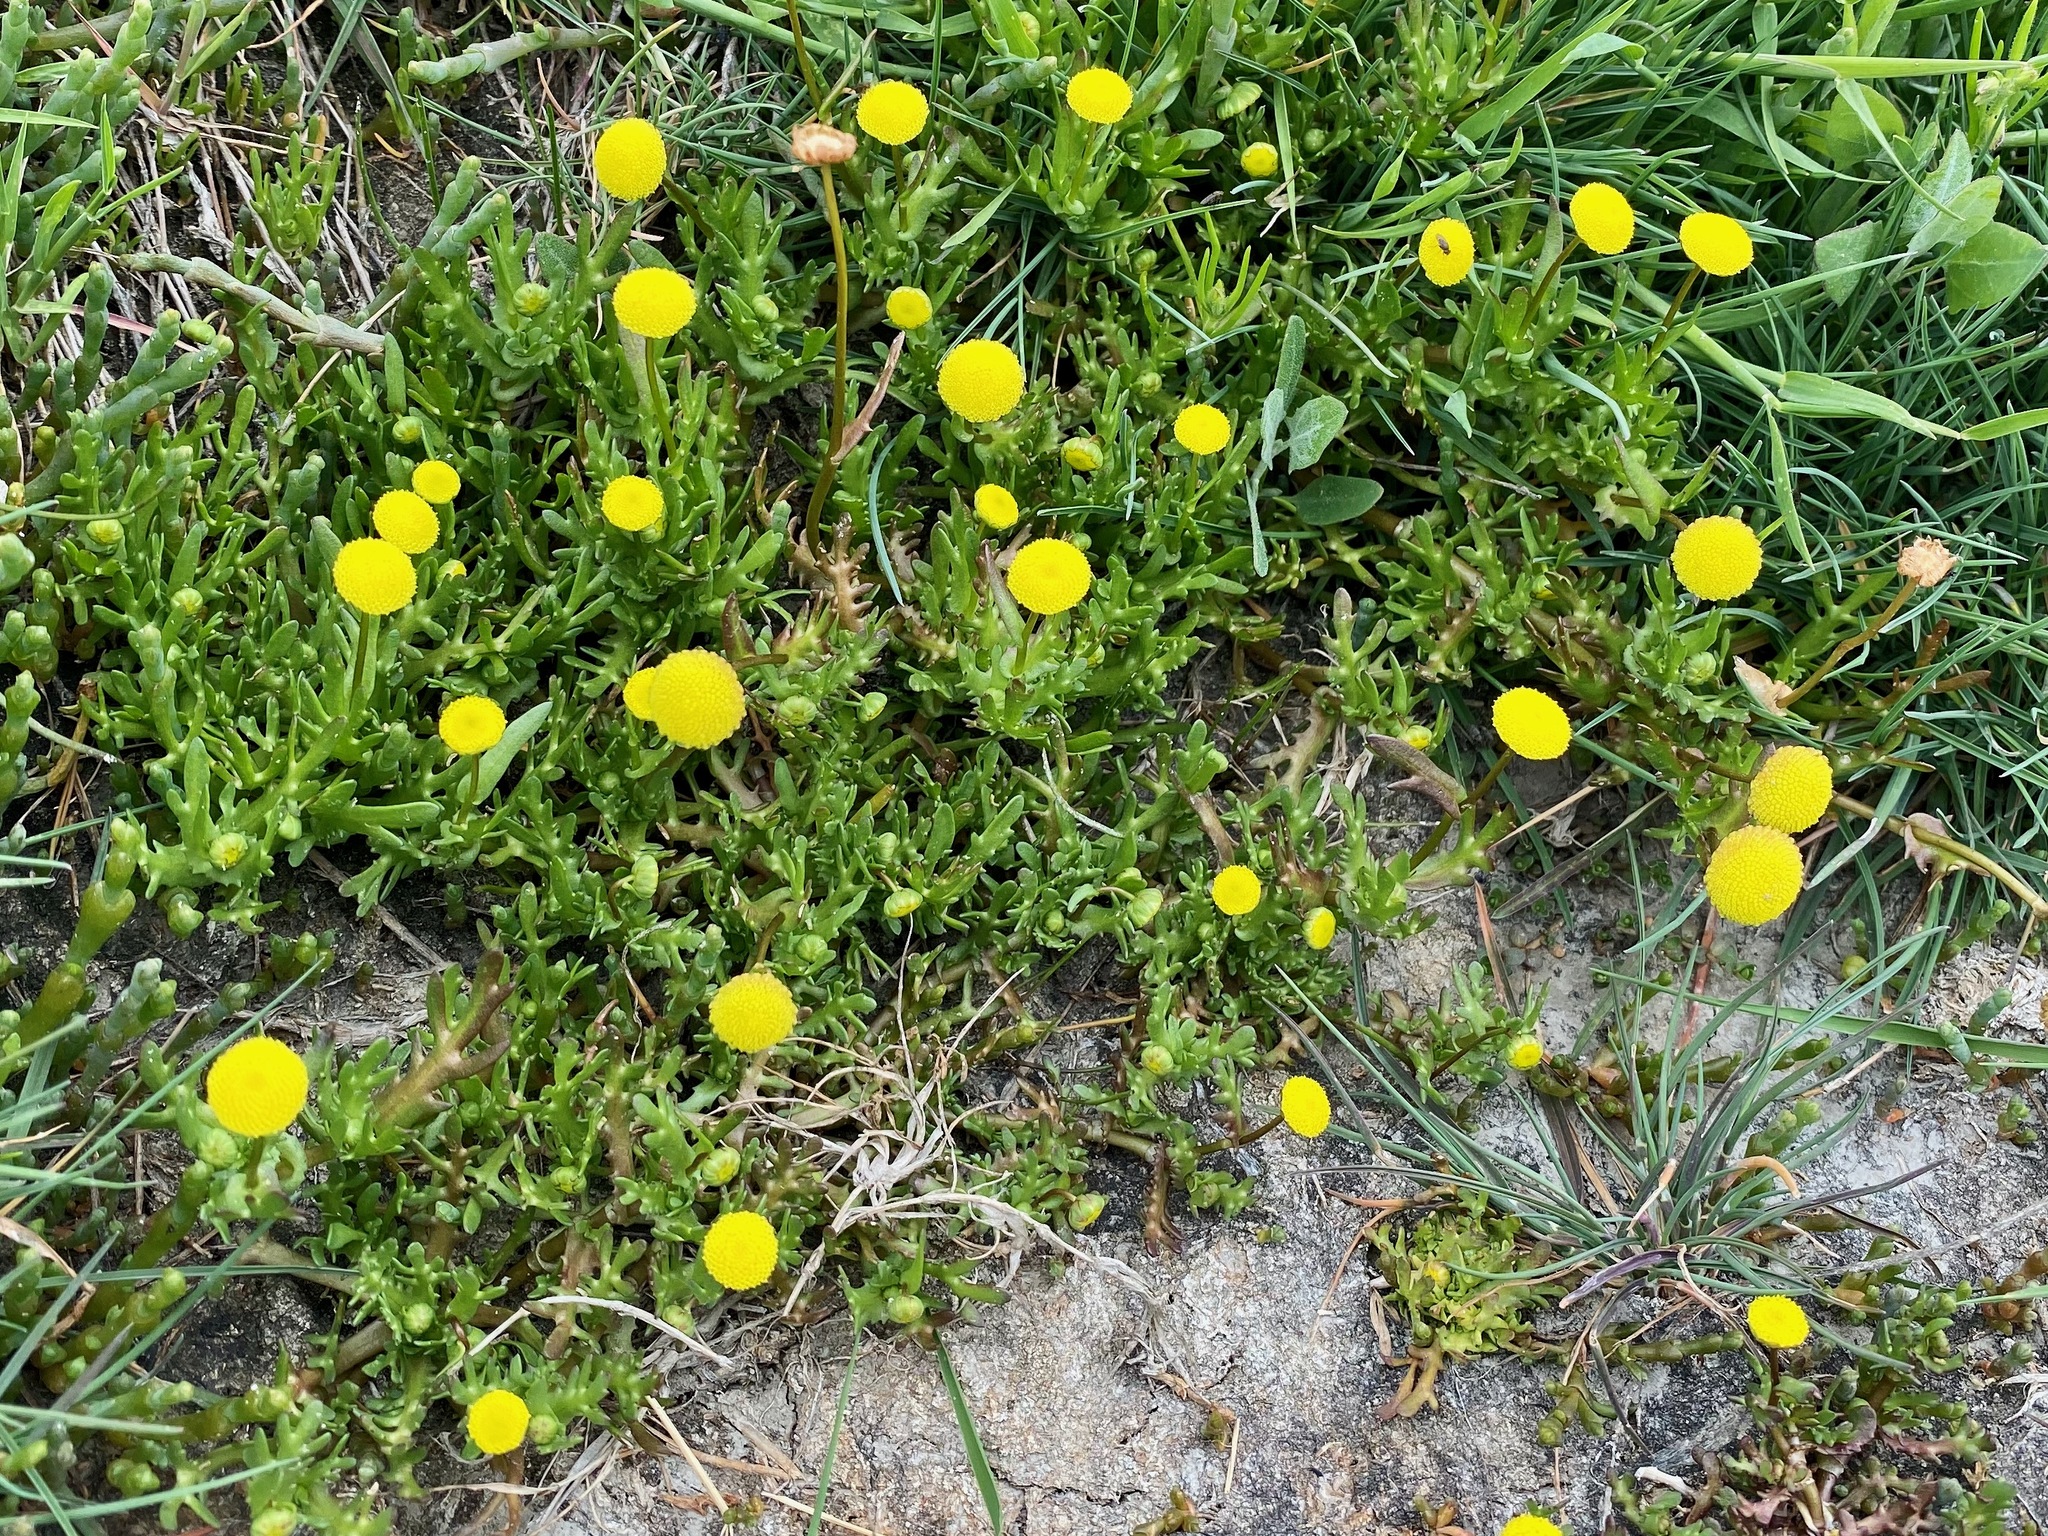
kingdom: Plantae
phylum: Tracheophyta
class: Magnoliopsida
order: Asterales
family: Asteraceae
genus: Cotula
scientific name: Cotula coronopifolia
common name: Buttonweed
